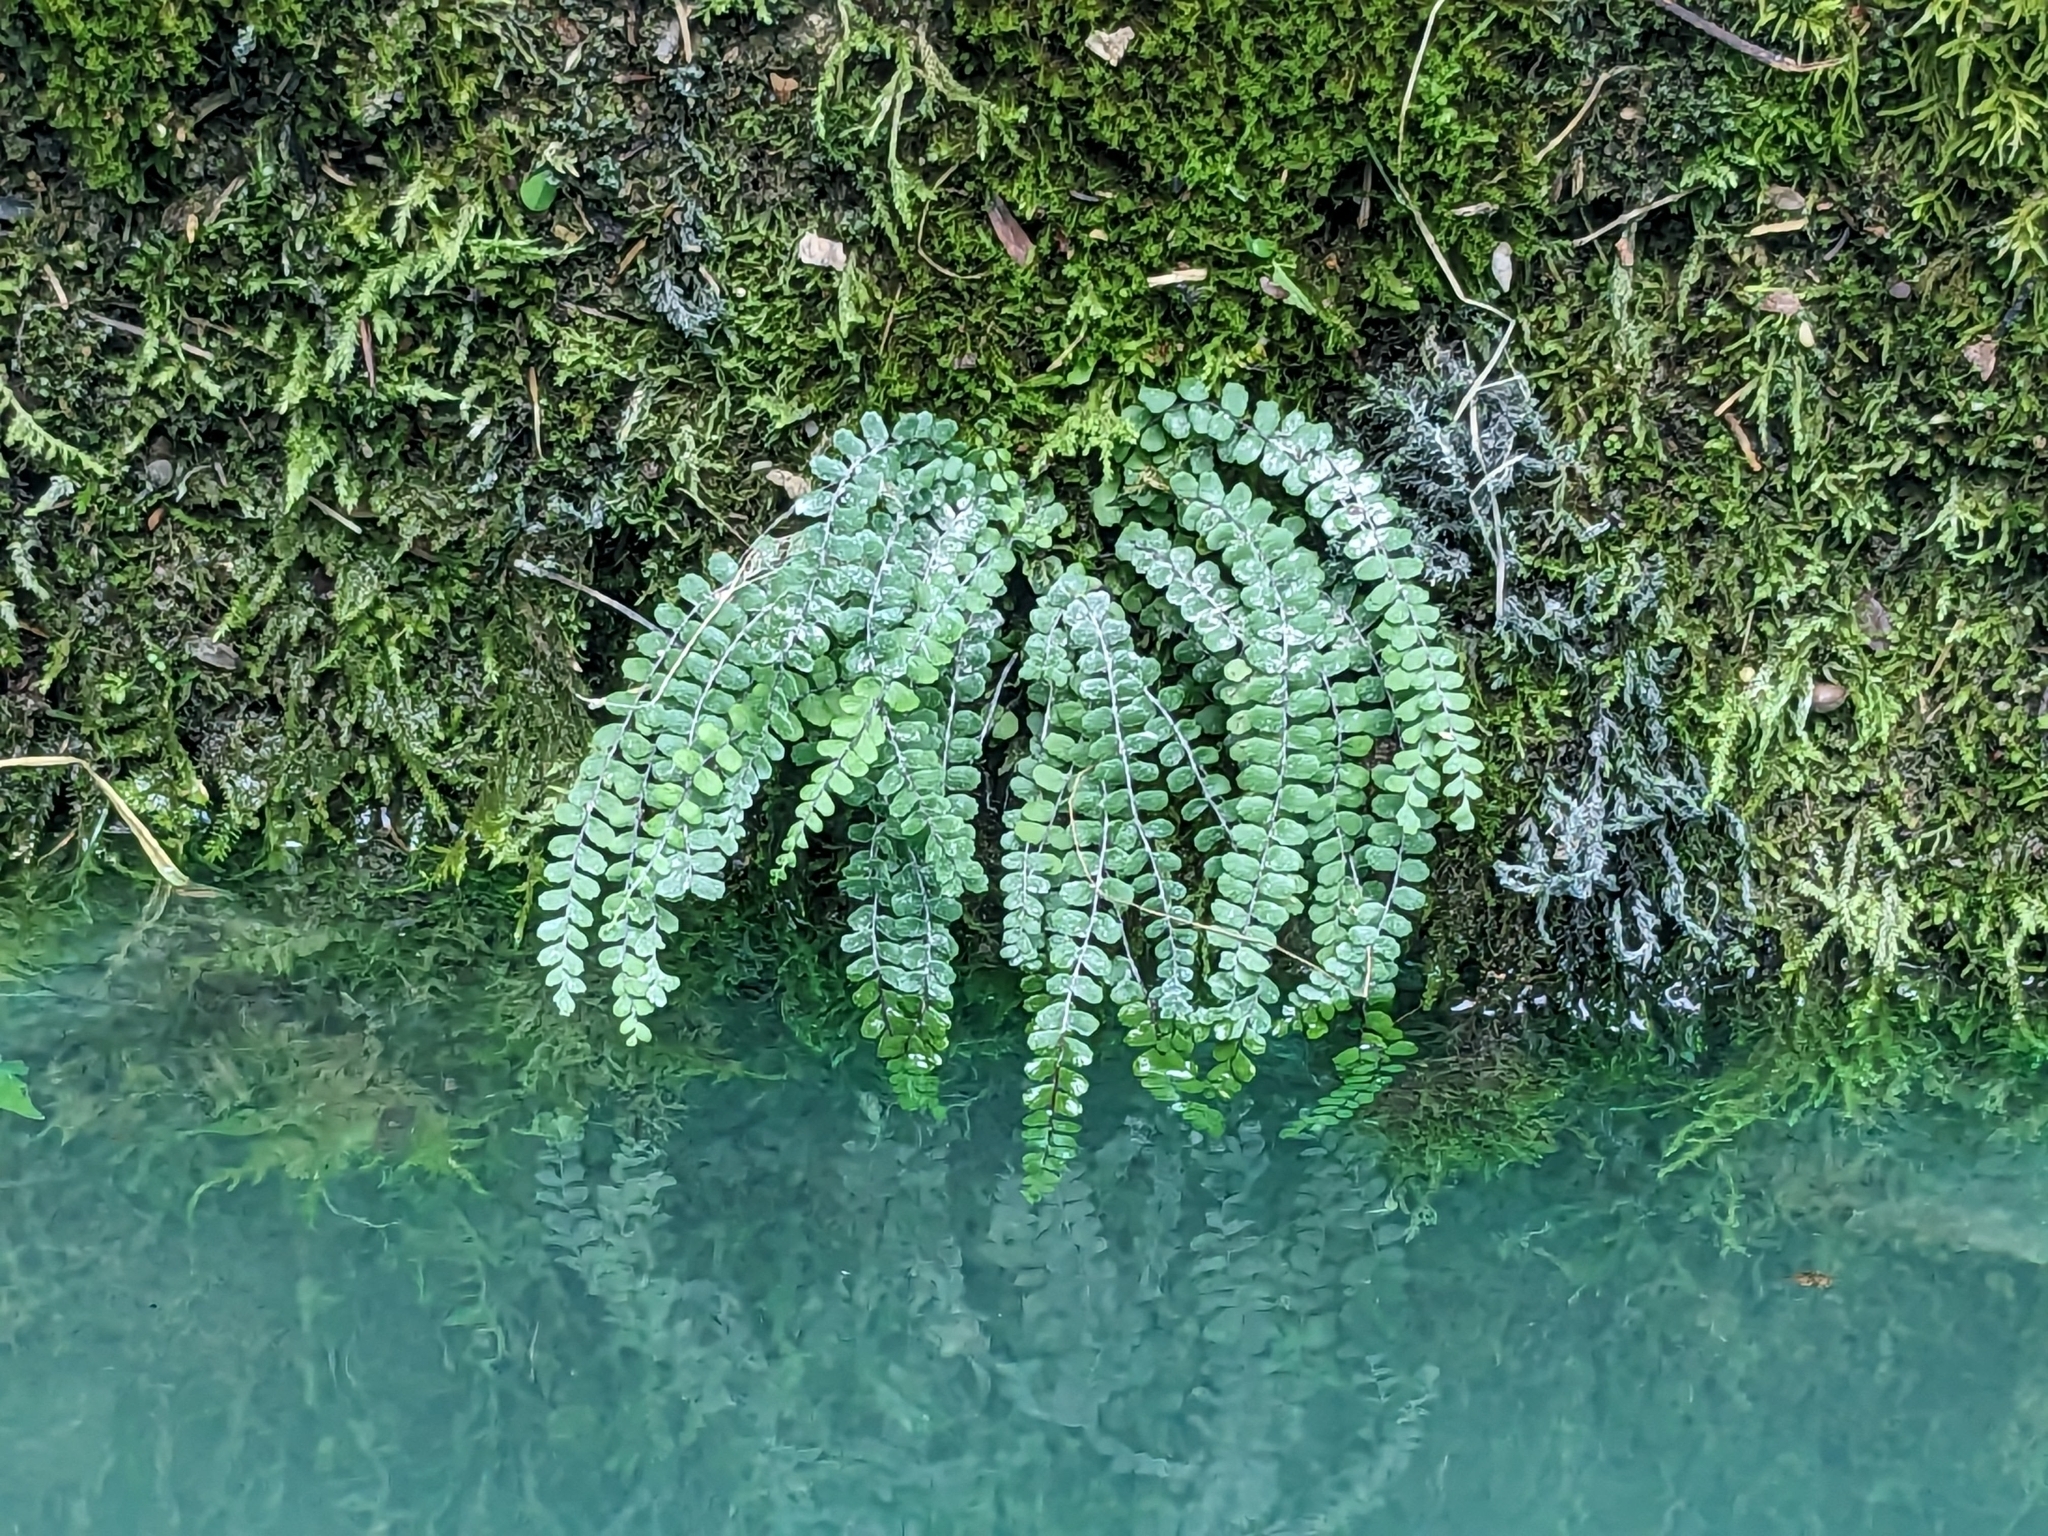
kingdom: Plantae
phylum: Tracheophyta
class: Polypodiopsida
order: Polypodiales
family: Aspleniaceae
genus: Asplenium
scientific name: Asplenium viride
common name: Green spleenwort
